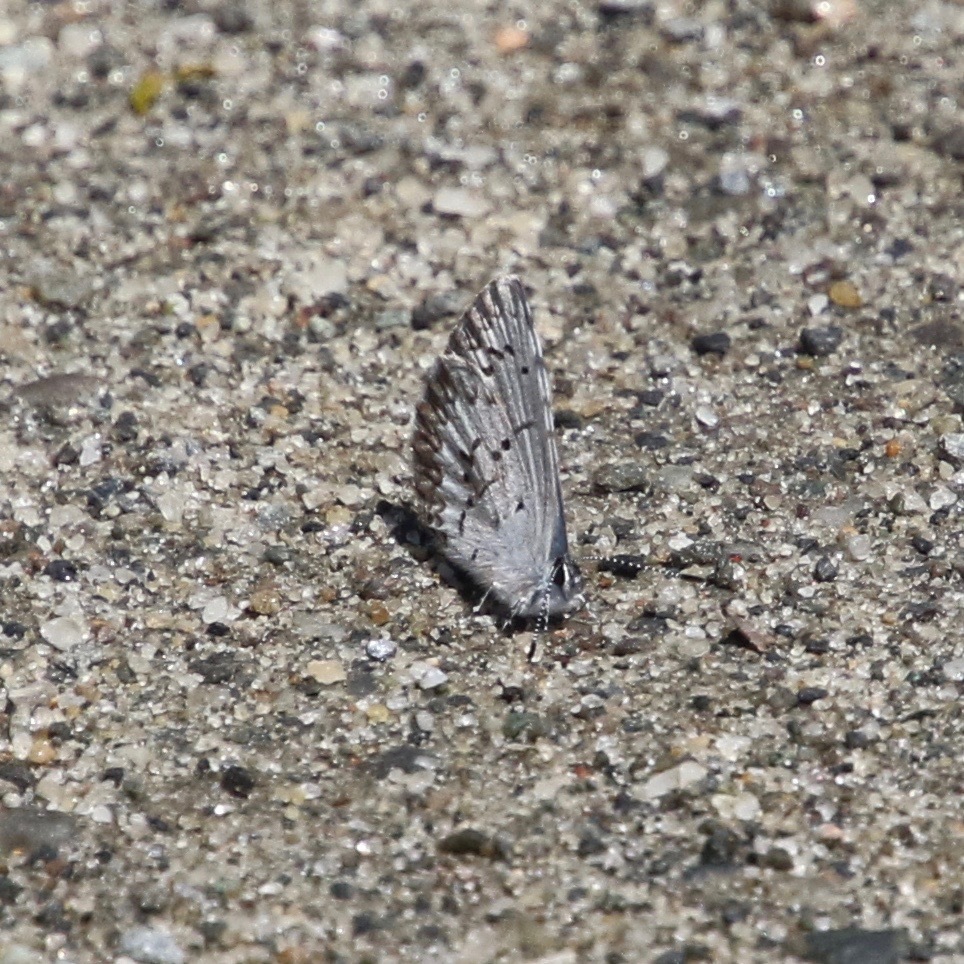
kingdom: Animalia
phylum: Arthropoda
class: Insecta
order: Lepidoptera
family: Lycaenidae
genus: Celastrina
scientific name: Celastrina lucia
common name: Lucia azure
